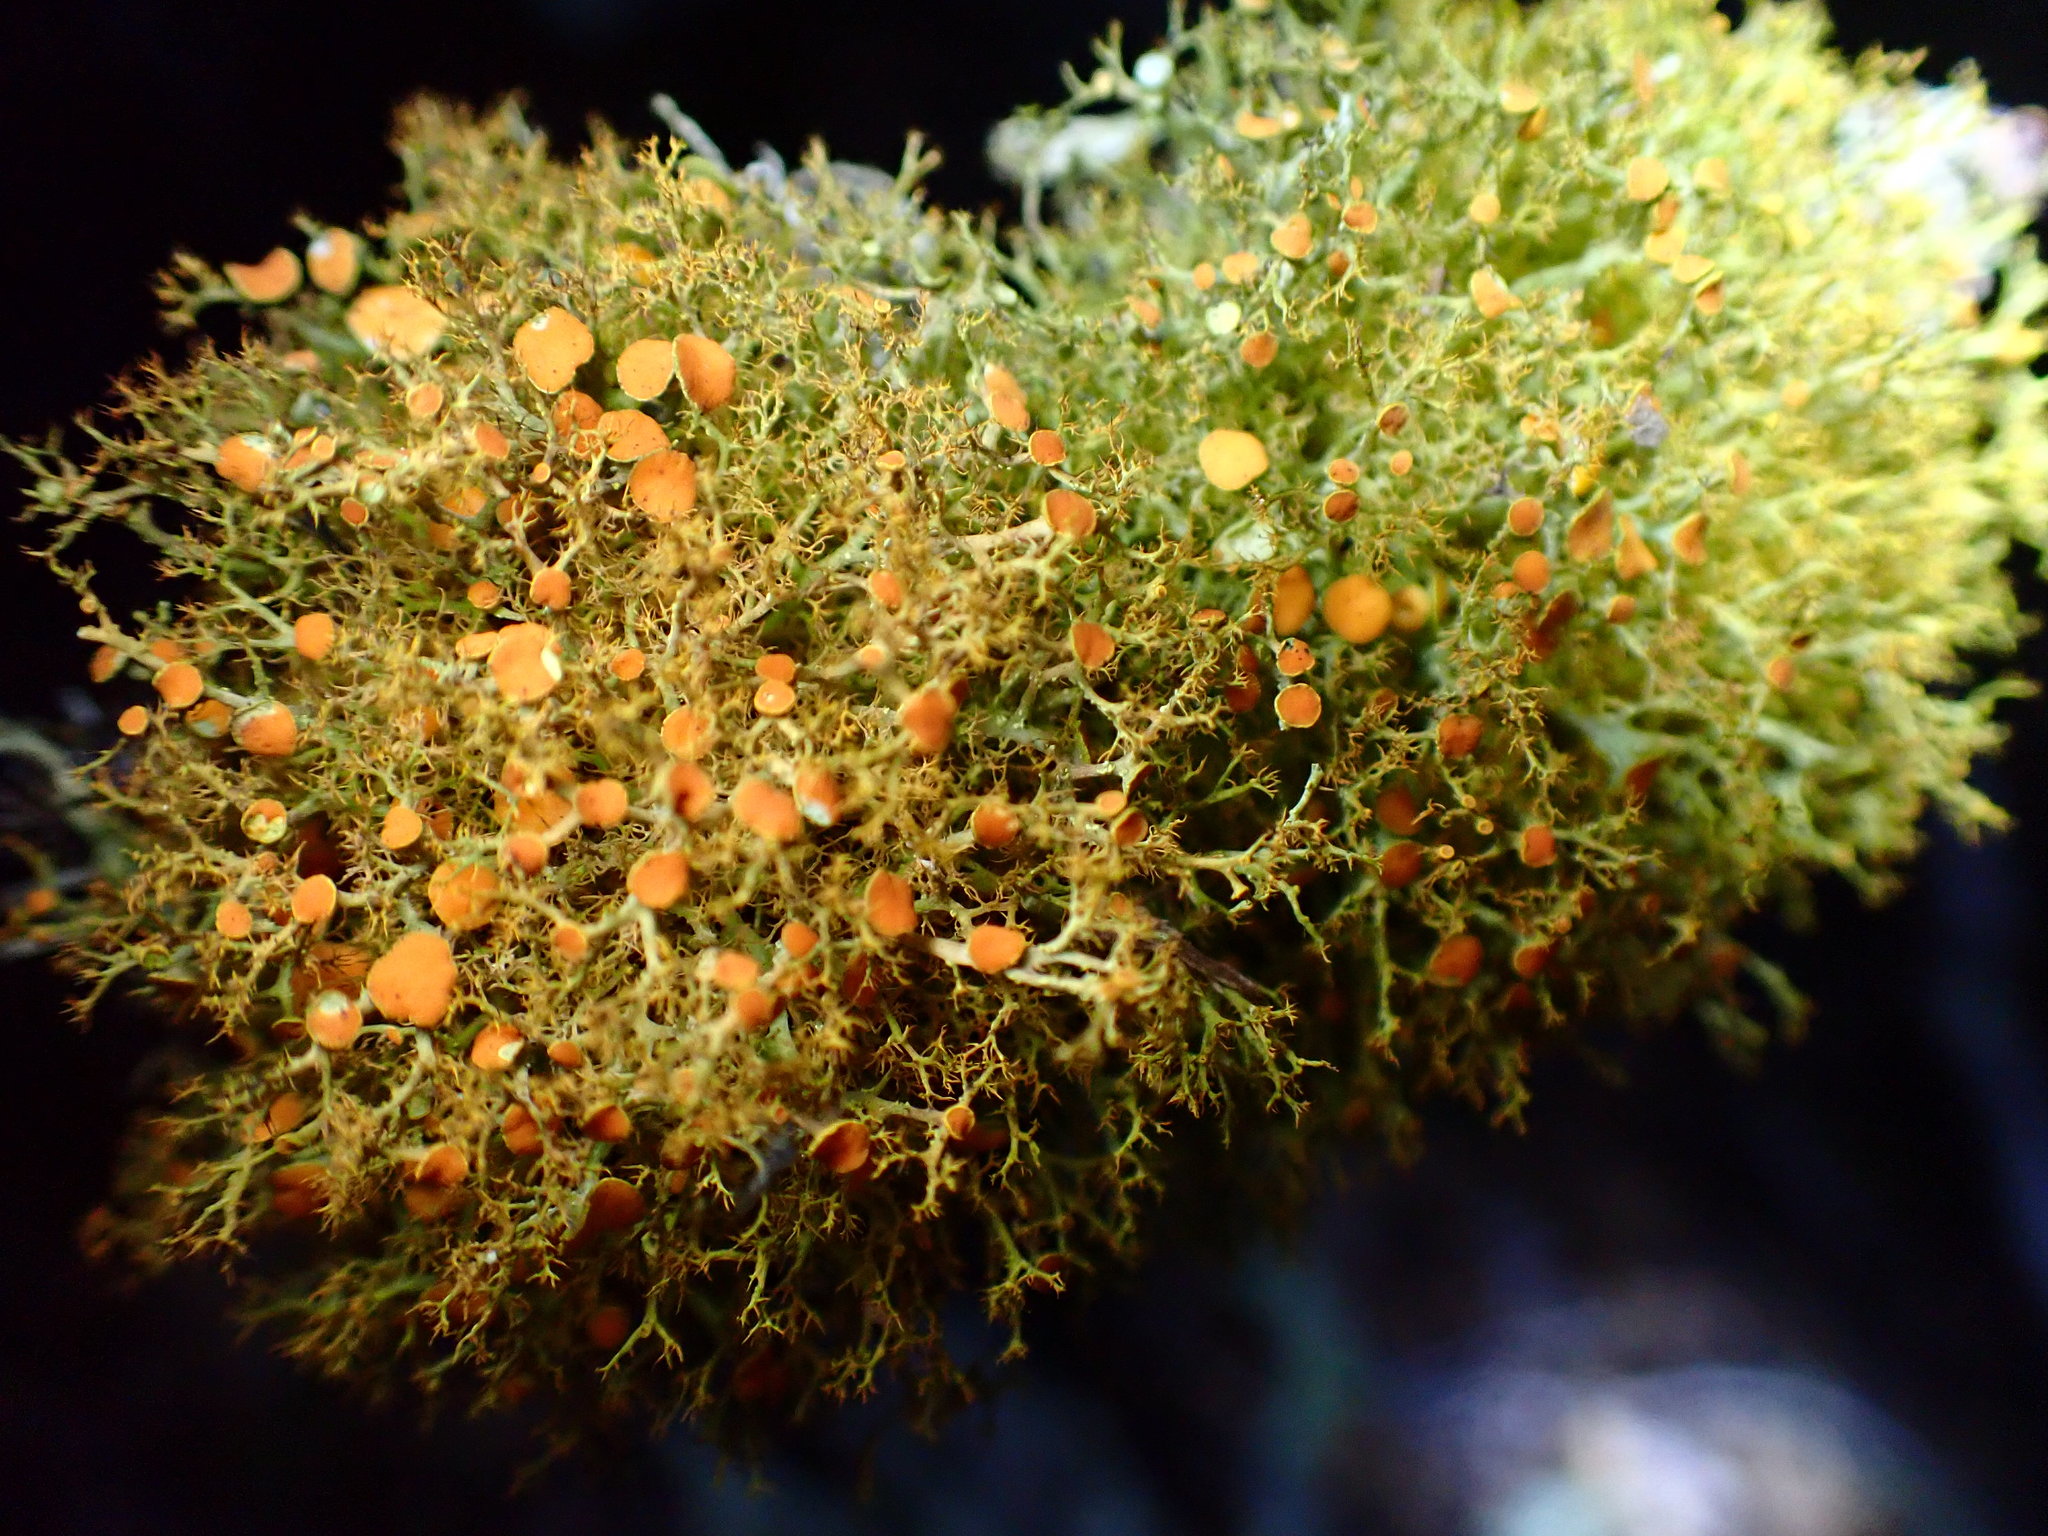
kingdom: Fungi
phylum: Ascomycota
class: Lecanoromycetes
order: Teloschistales
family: Teloschistaceae
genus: Teloschistes
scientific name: Teloschistes flavicans
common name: Golden hair-lichen
